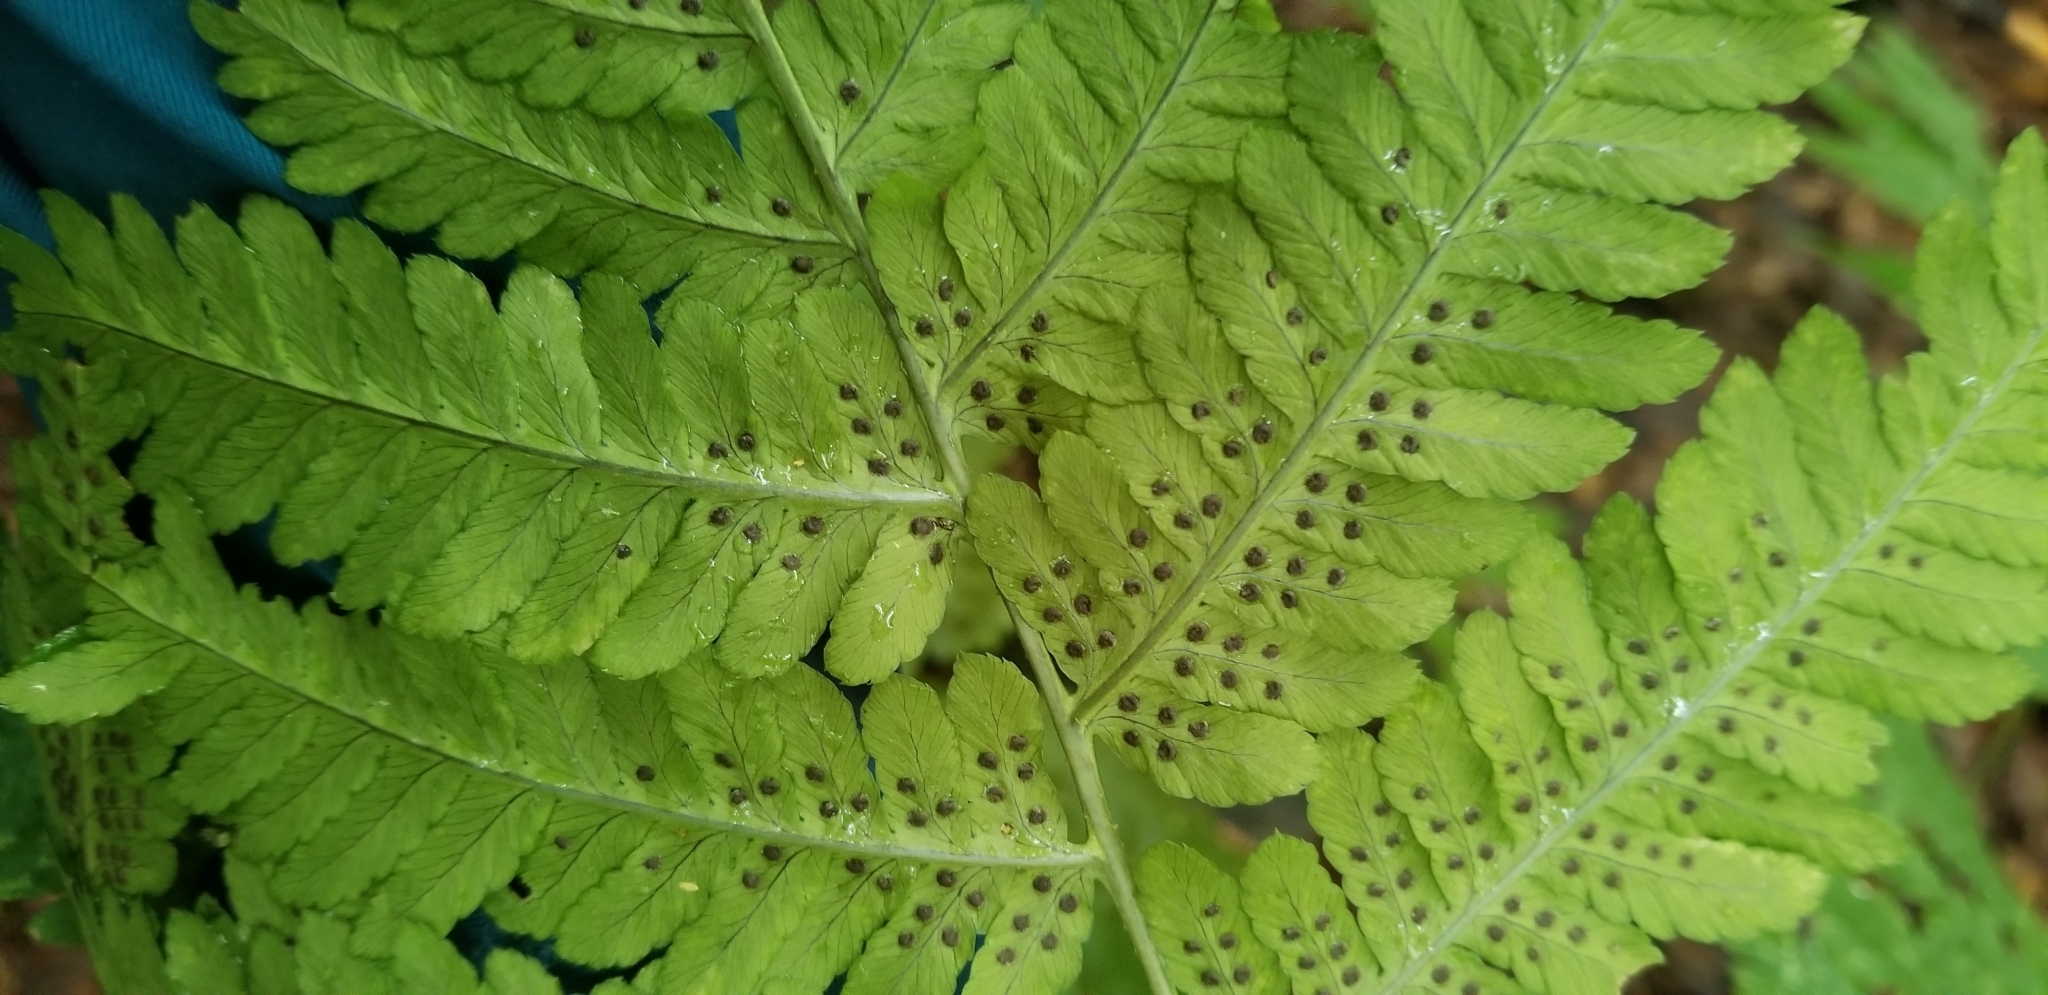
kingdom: Plantae
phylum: Tracheophyta
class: Polypodiopsida
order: Polypodiales
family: Dryopteridaceae
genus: Dryopteris
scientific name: Dryopteris goldieana
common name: Goldie's fern
